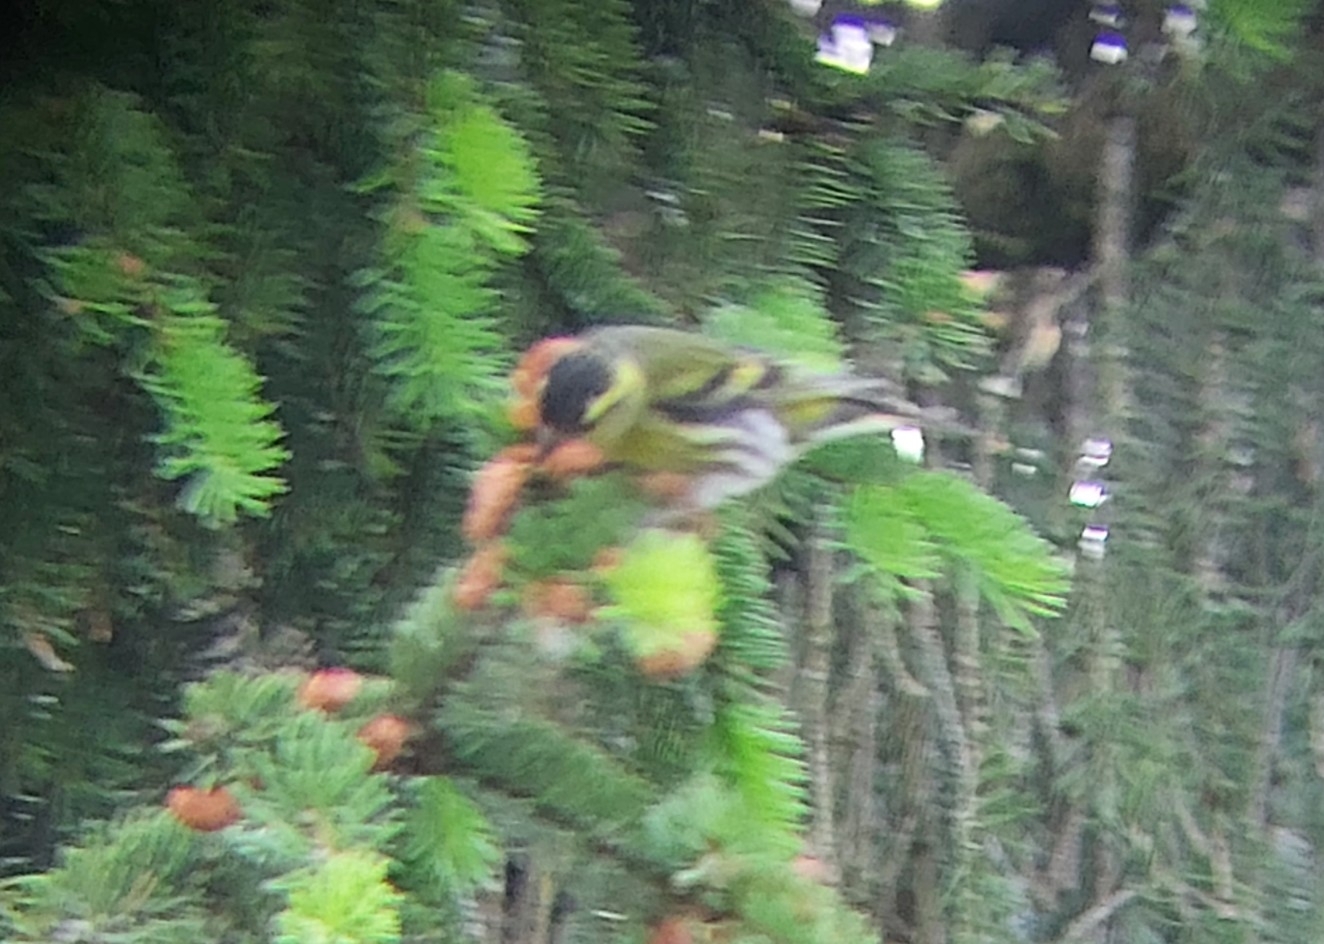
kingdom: Animalia
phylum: Chordata
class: Aves
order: Passeriformes
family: Fringillidae
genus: Spinus
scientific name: Spinus spinus
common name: Eurasian siskin
